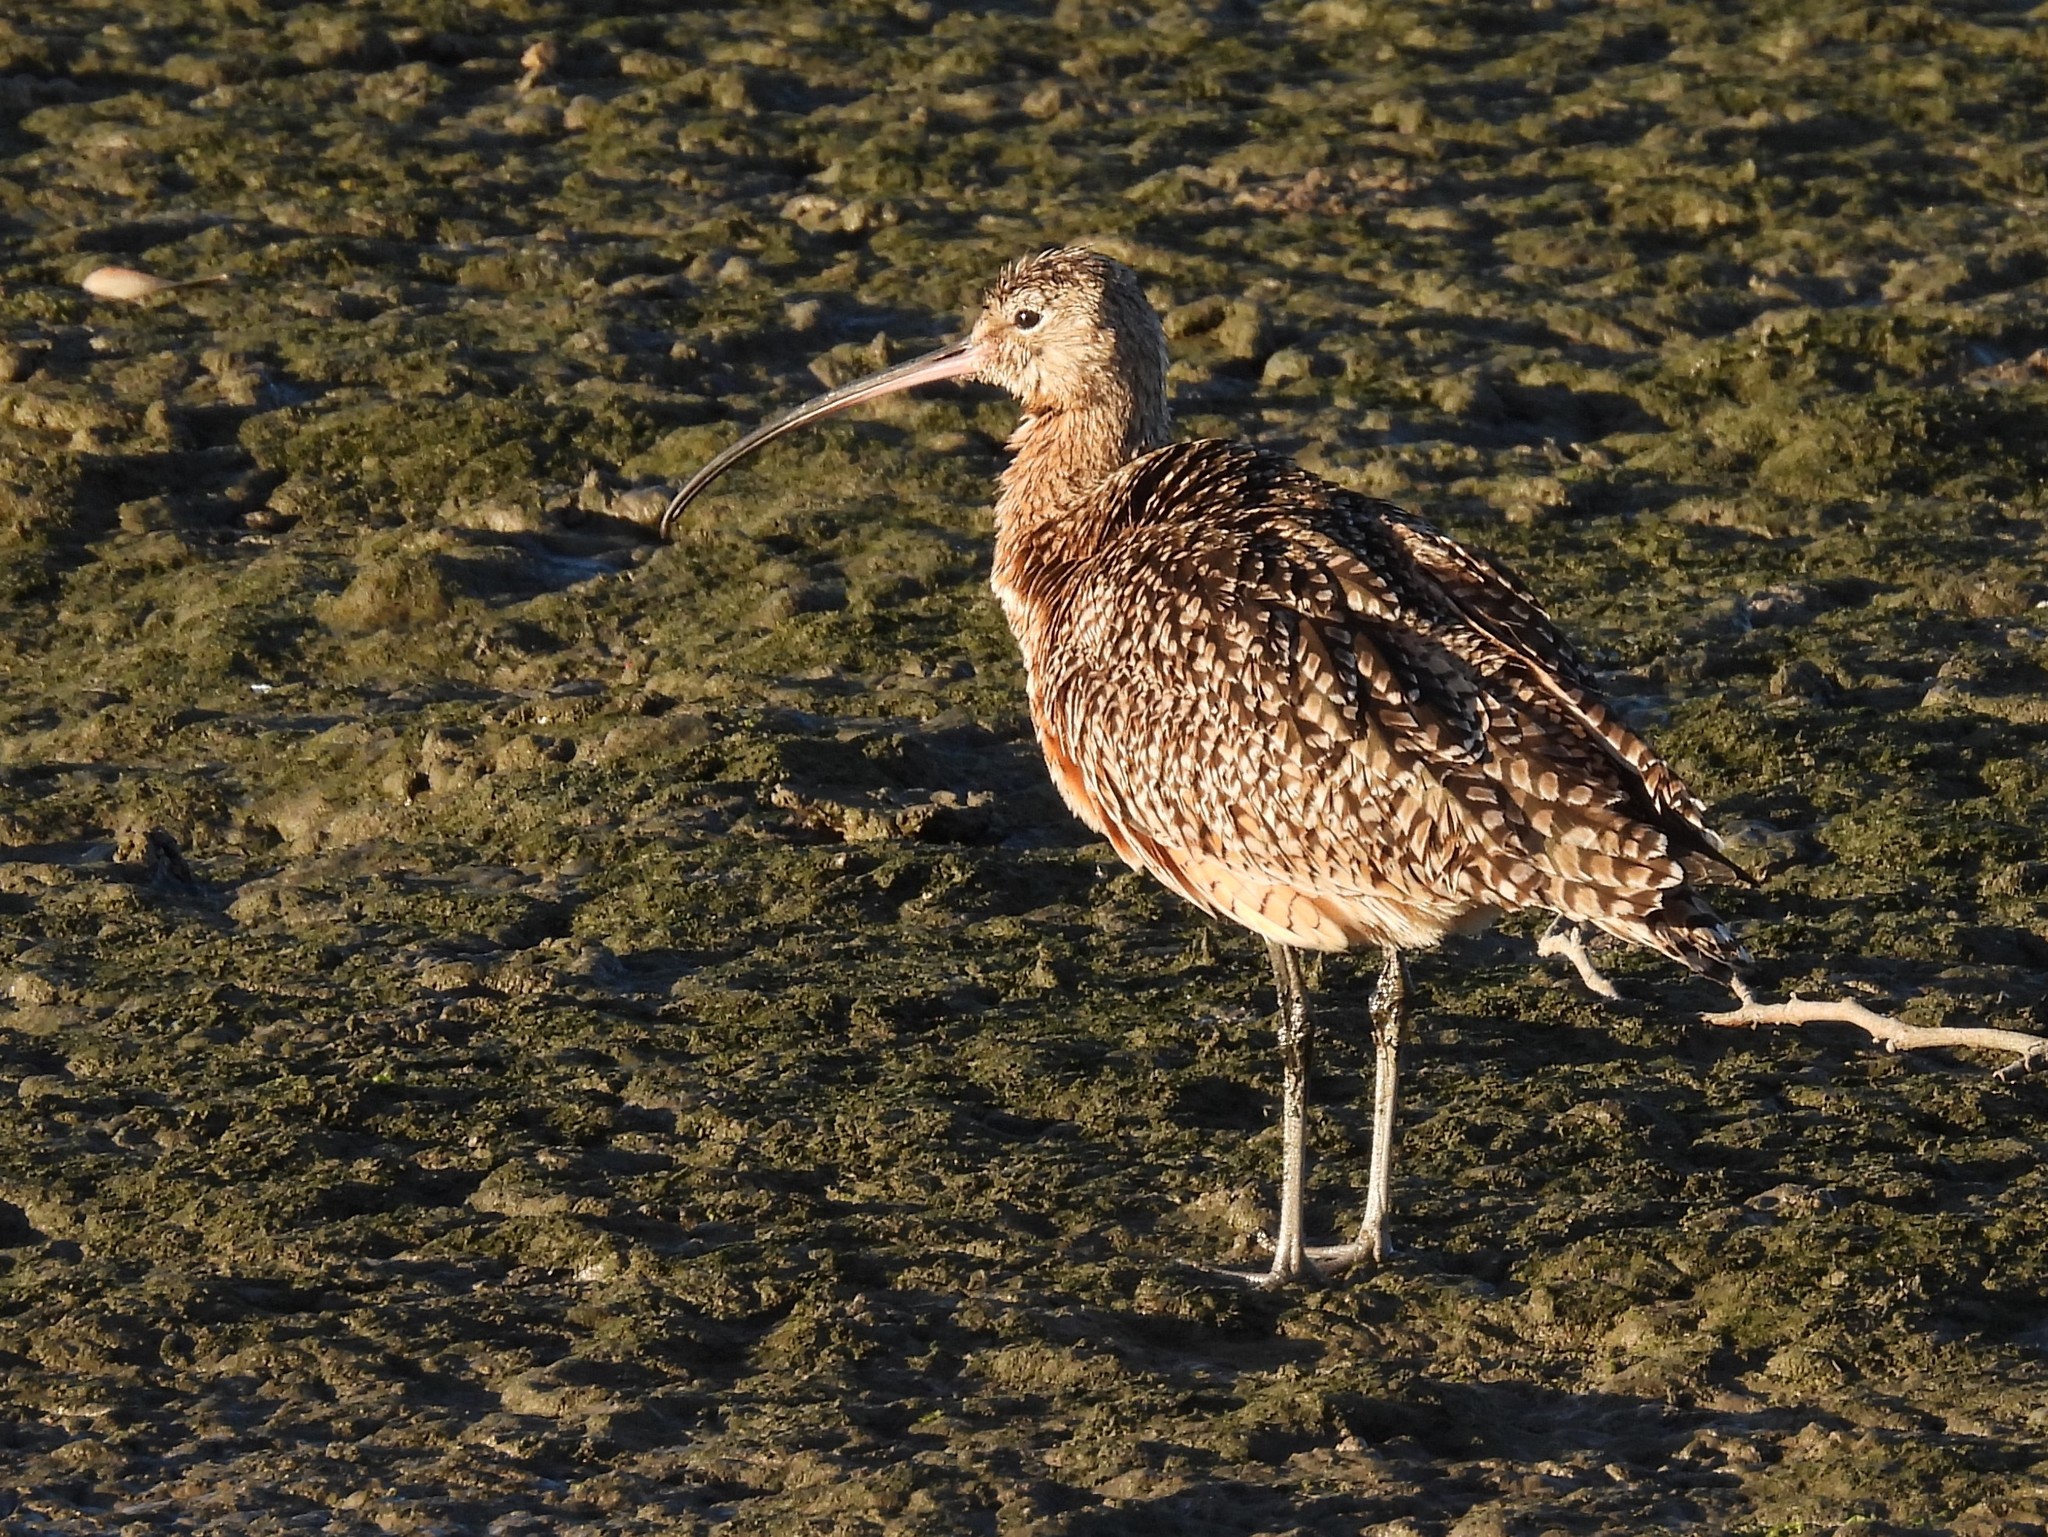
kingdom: Animalia
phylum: Chordata
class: Aves
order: Charadriiformes
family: Scolopacidae
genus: Numenius
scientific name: Numenius americanus
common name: Long-billed curlew
